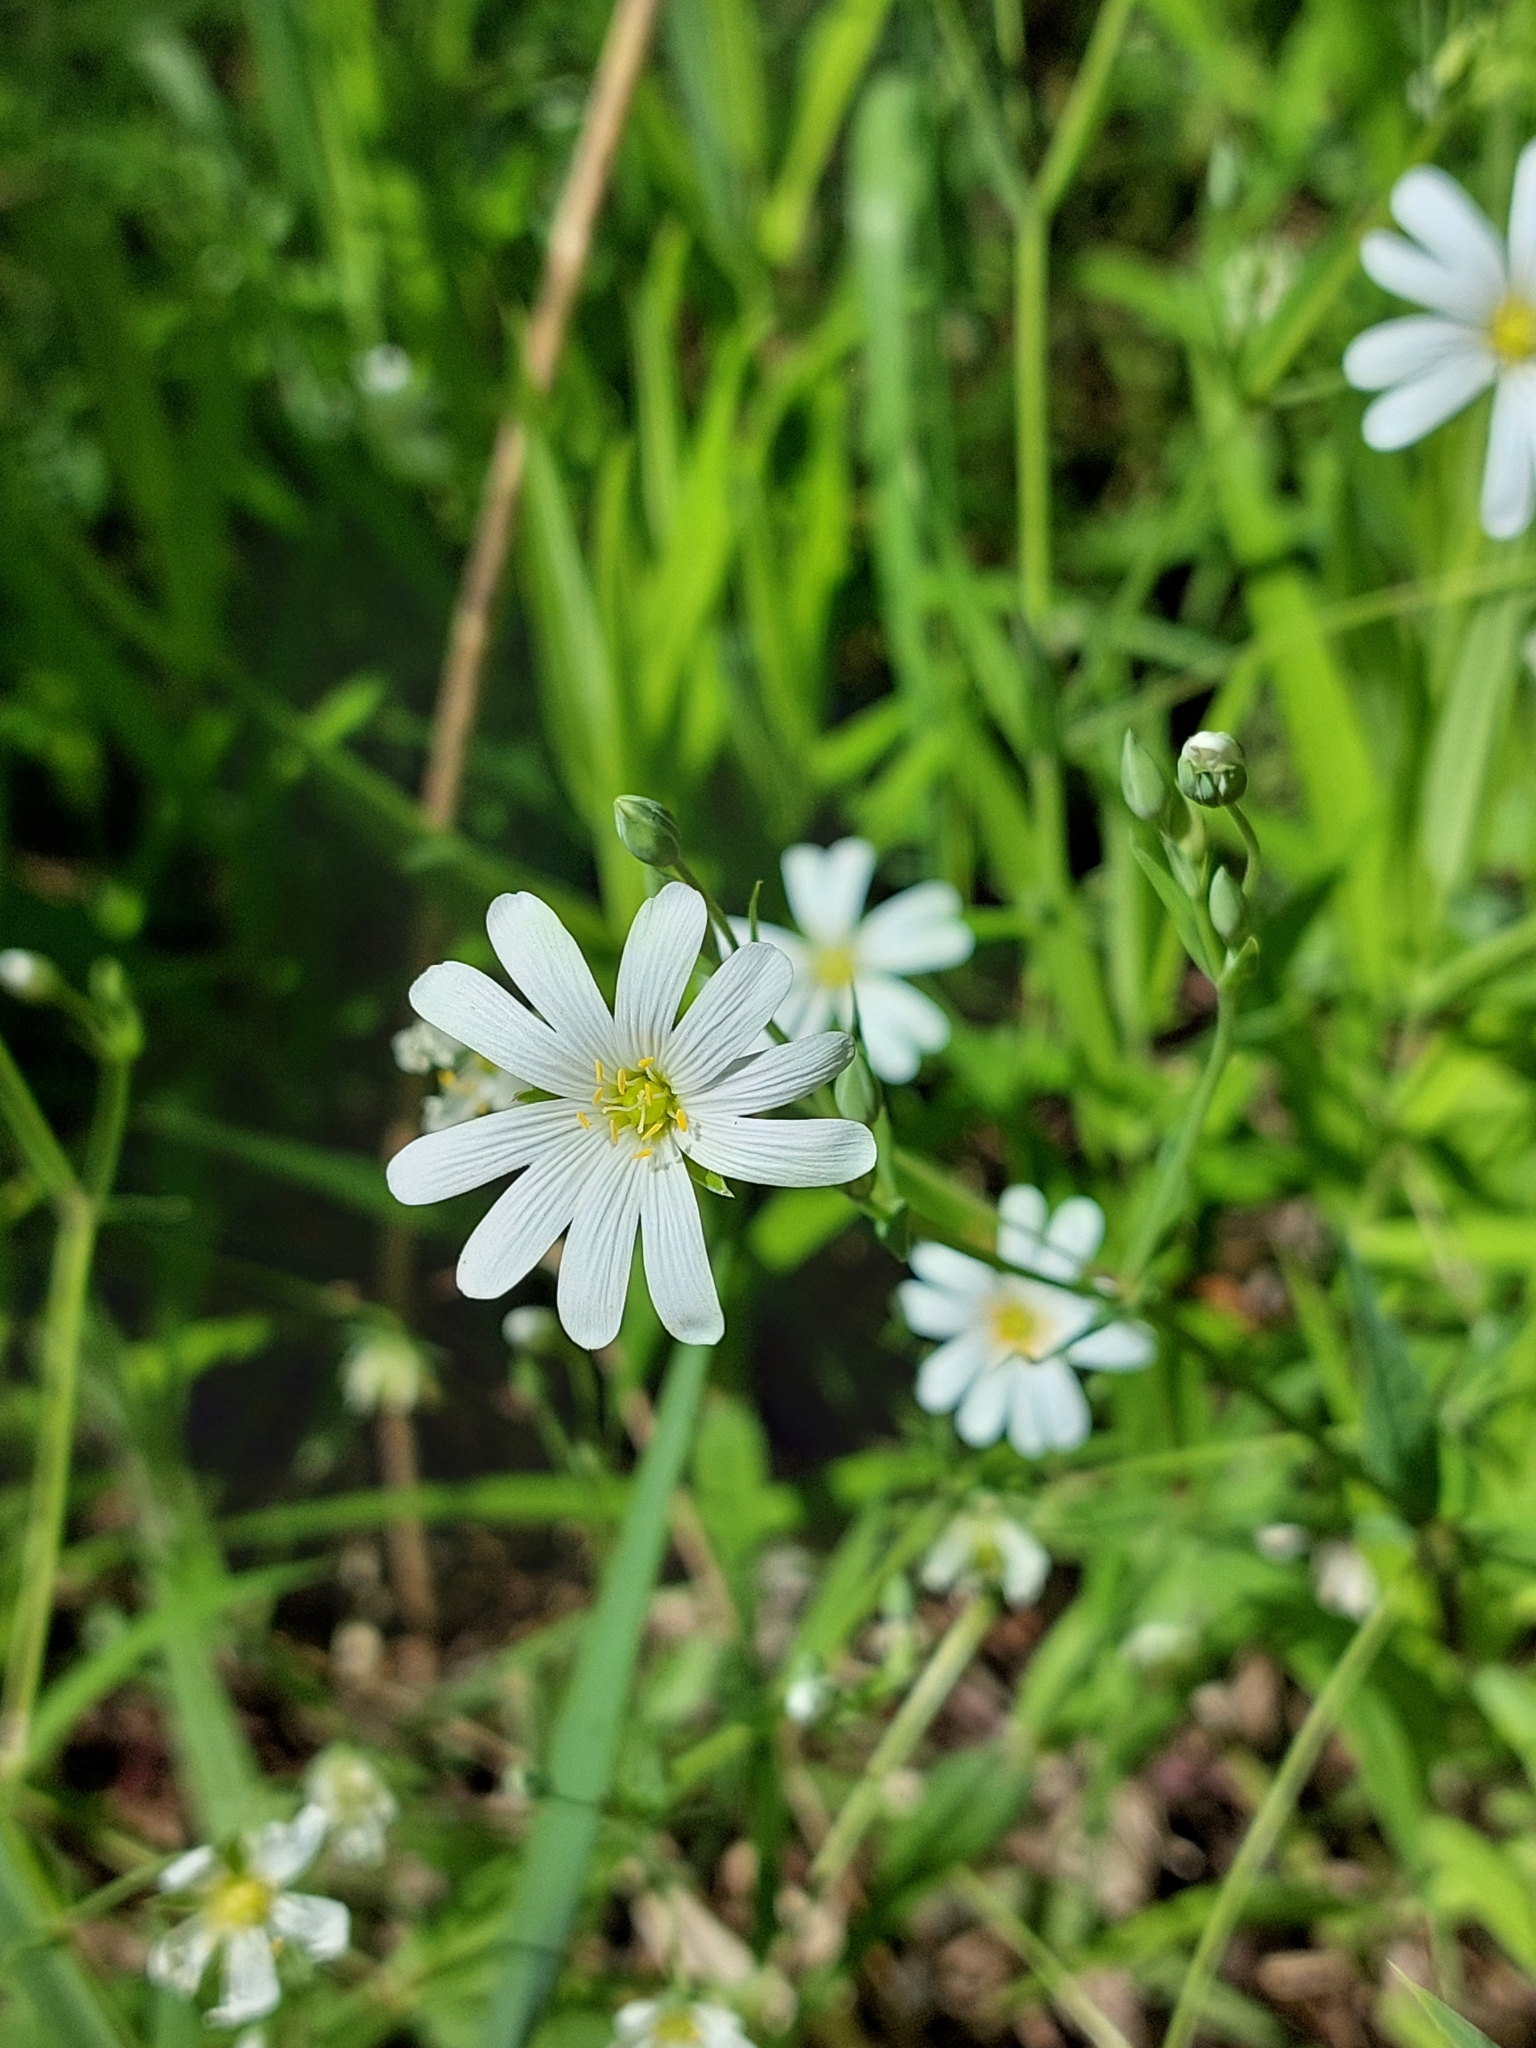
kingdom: Plantae
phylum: Tracheophyta
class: Magnoliopsida
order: Caryophyllales
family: Caryophyllaceae
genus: Rabelera
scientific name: Rabelera holostea
